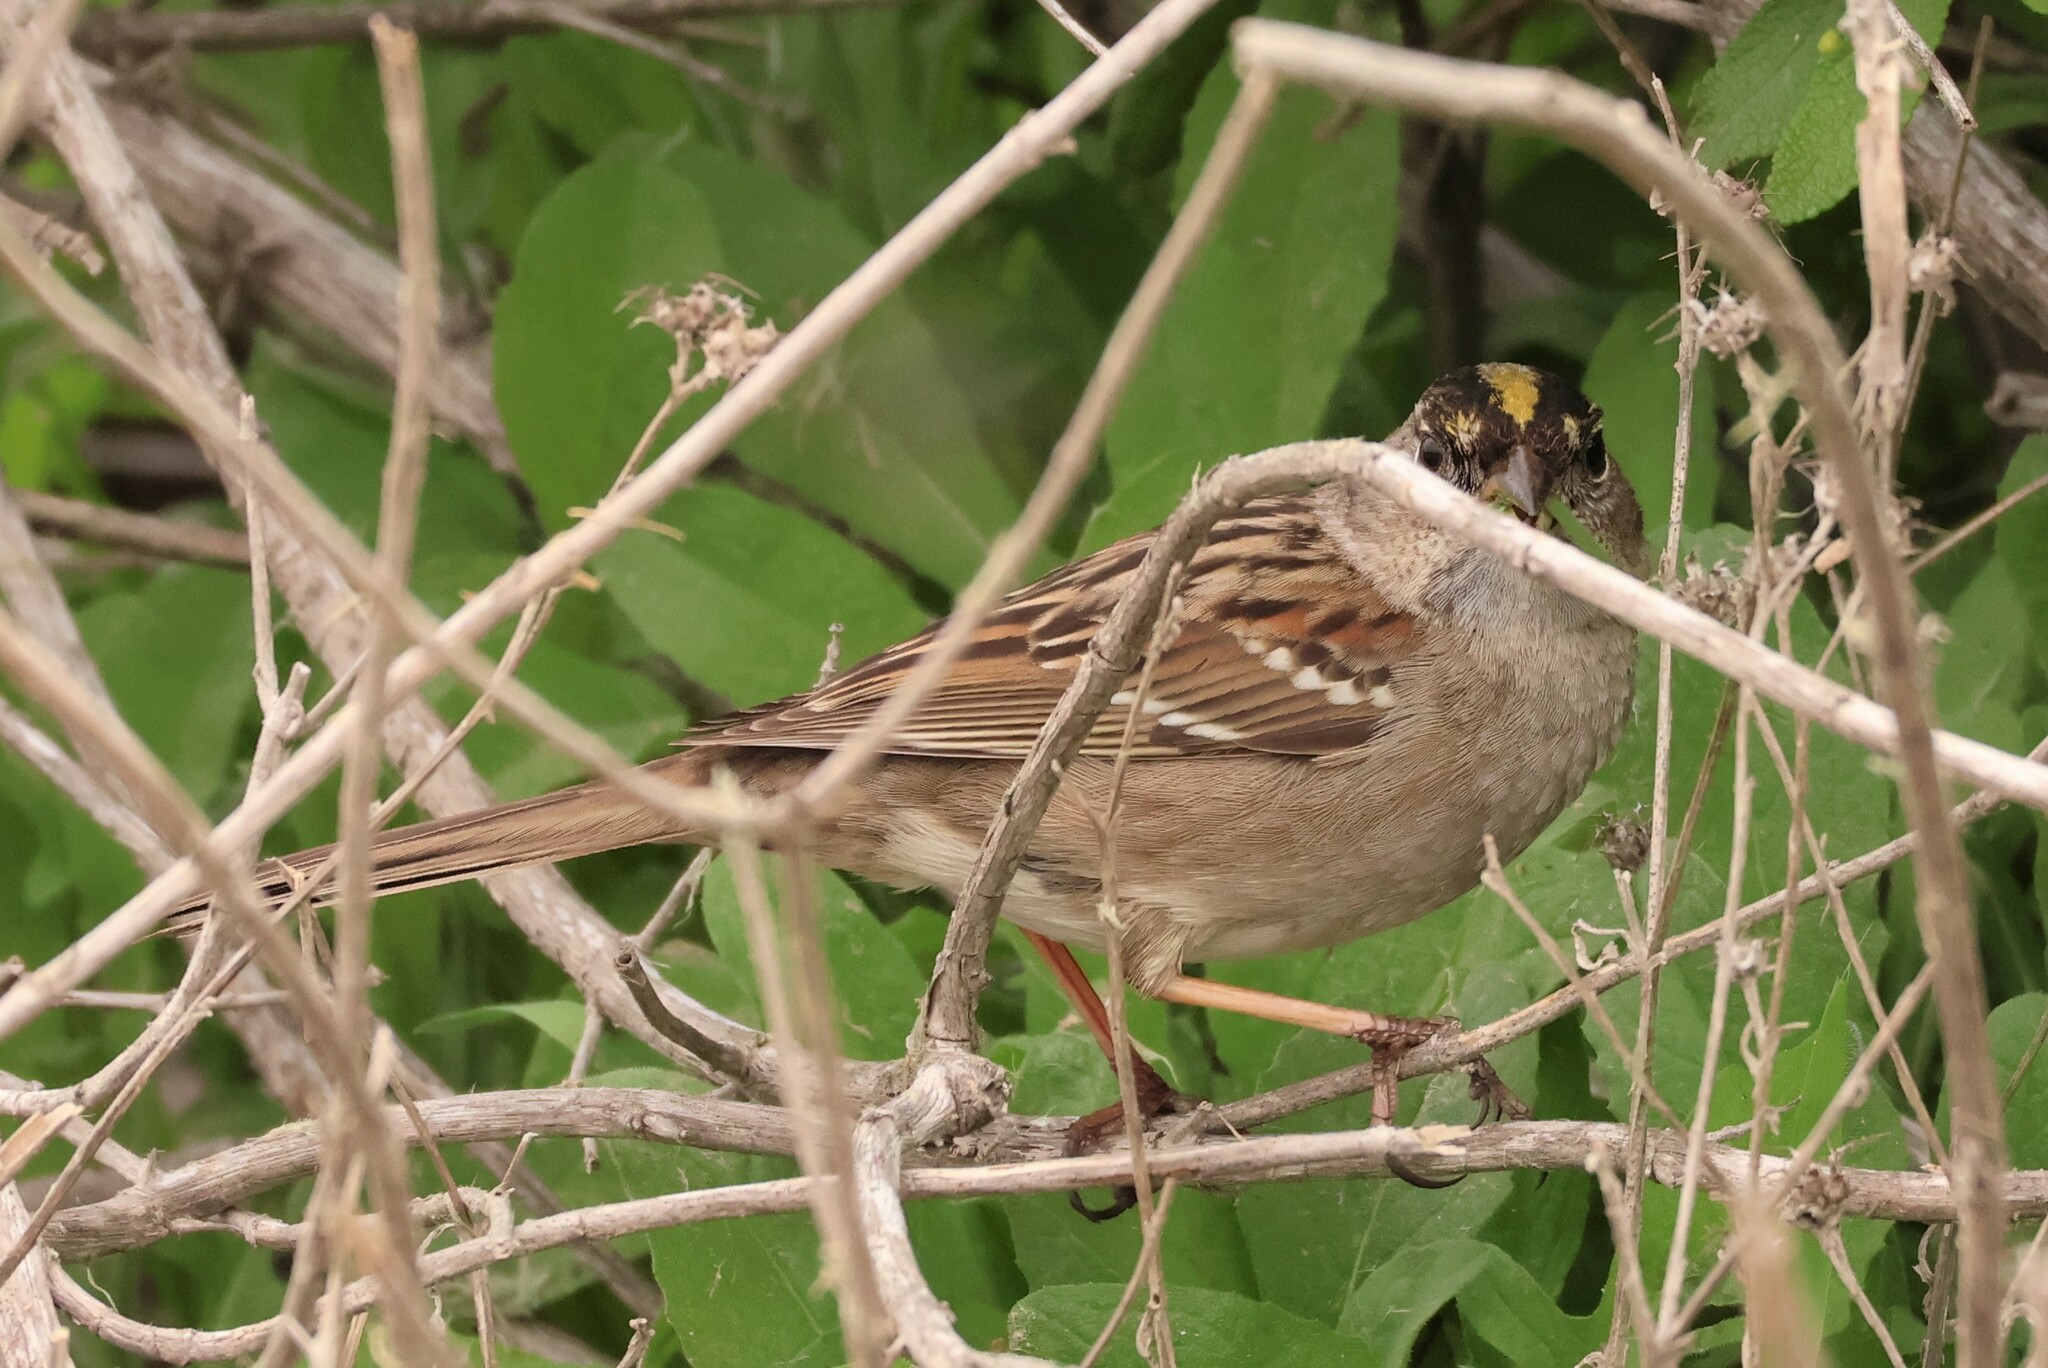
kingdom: Animalia
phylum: Chordata
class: Aves
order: Passeriformes
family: Passerellidae
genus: Zonotrichia
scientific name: Zonotrichia atricapilla
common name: Golden-crowned sparrow
